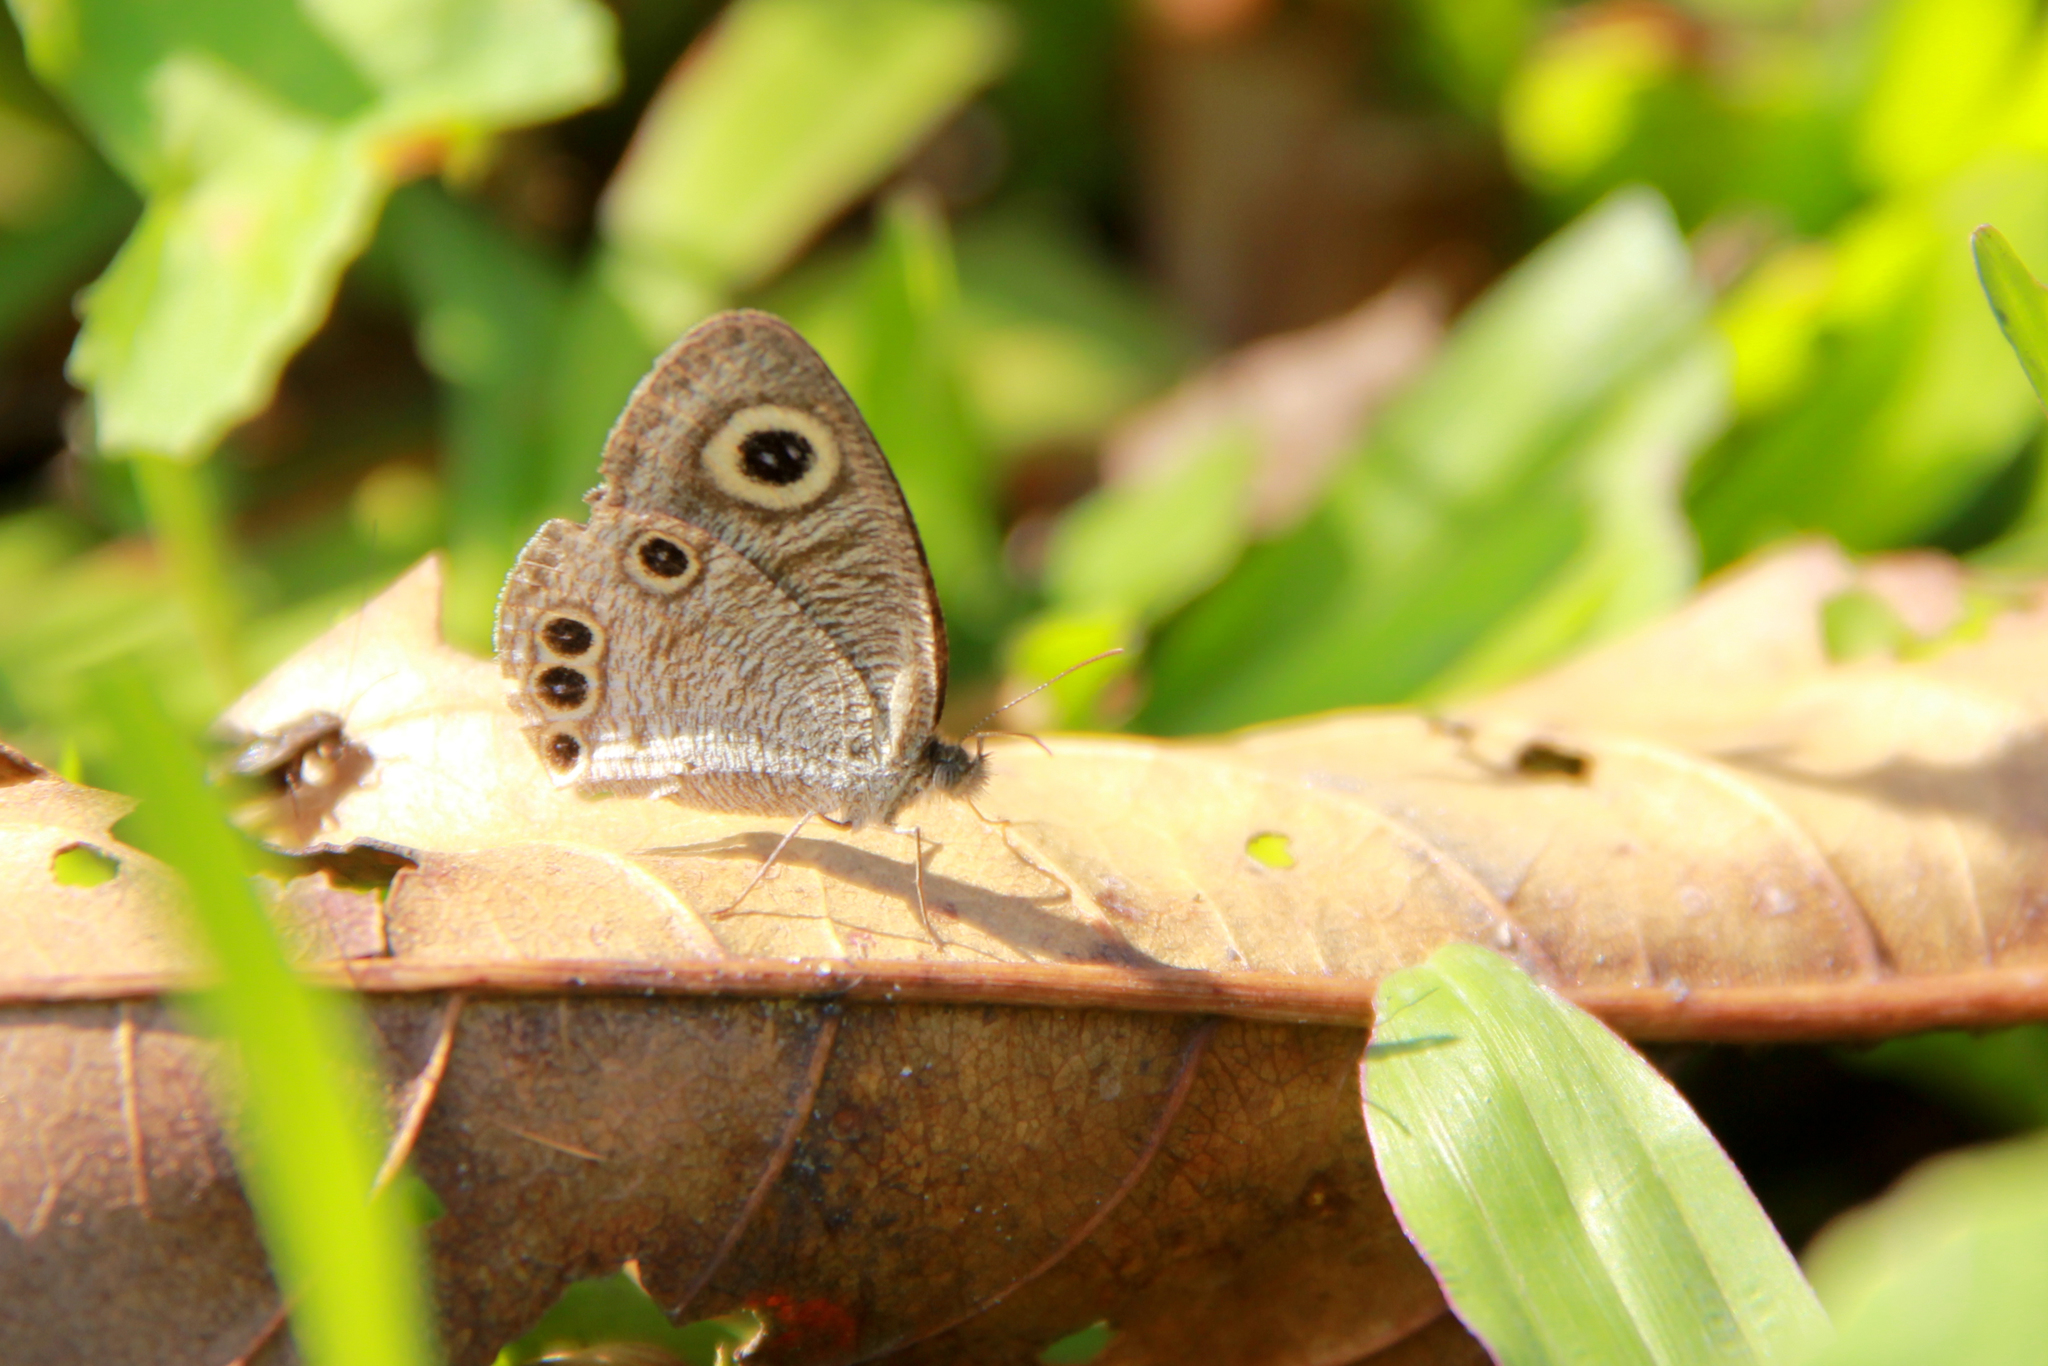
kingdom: Animalia
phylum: Arthropoda
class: Insecta
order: Lepidoptera
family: Nymphalidae
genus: Ypthima
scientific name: Ypthima huebneri
